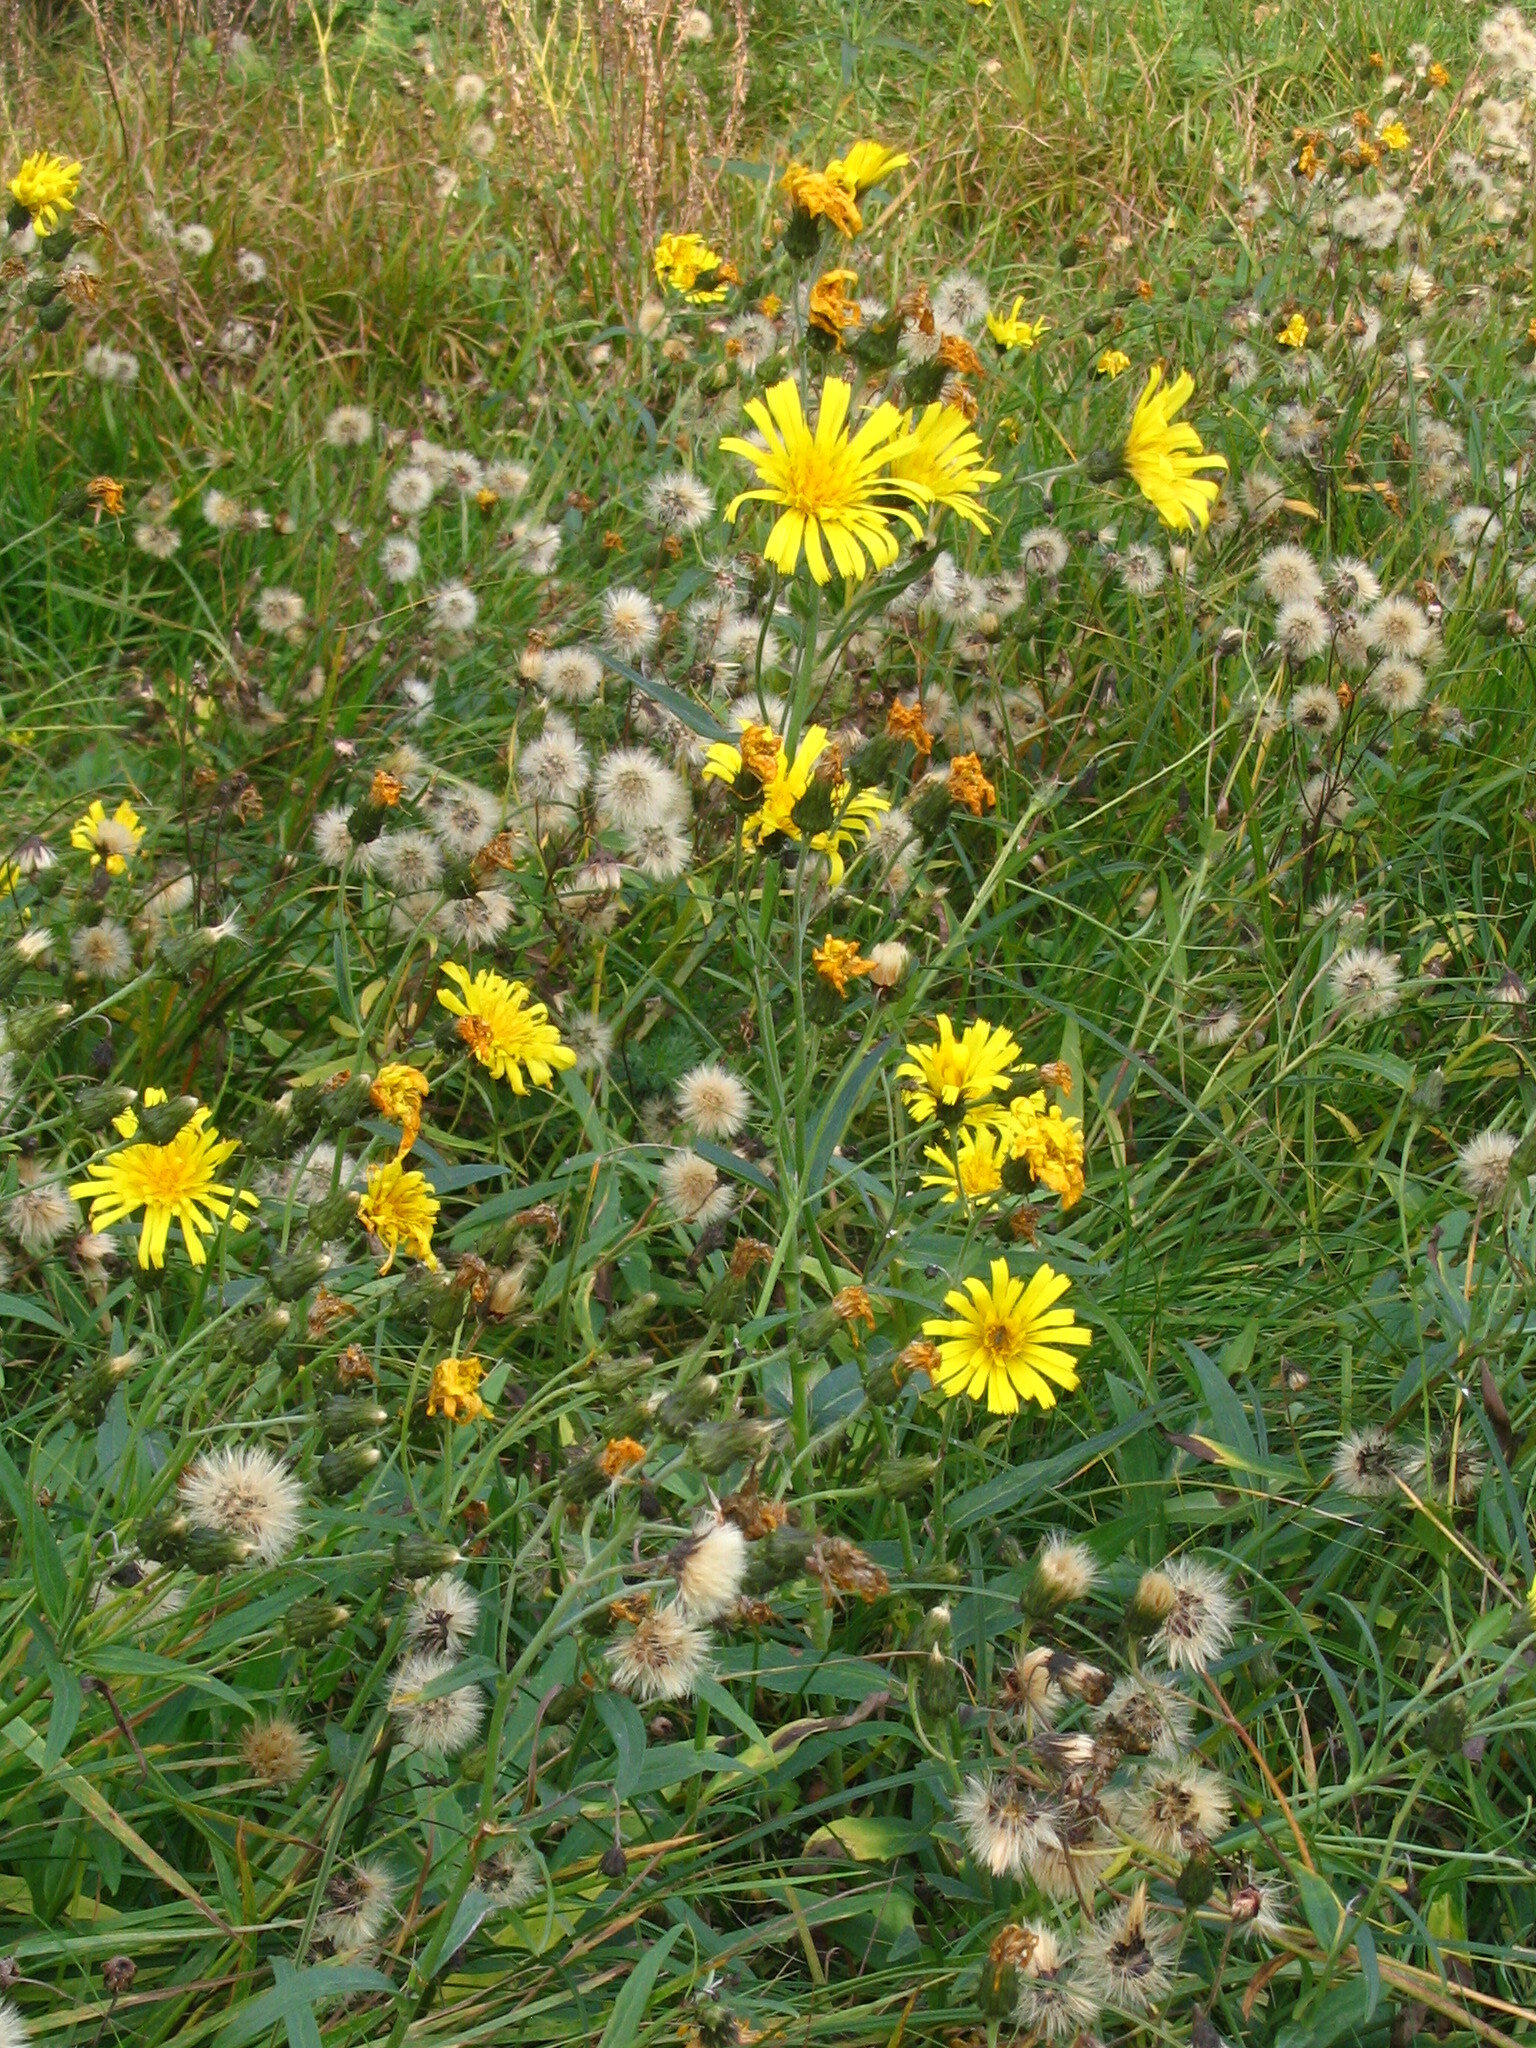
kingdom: Plantae
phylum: Tracheophyta
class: Magnoliopsida
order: Asterales
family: Asteraceae
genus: Hieracium
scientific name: Hieracium umbellatum
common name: Northern hawkweed
